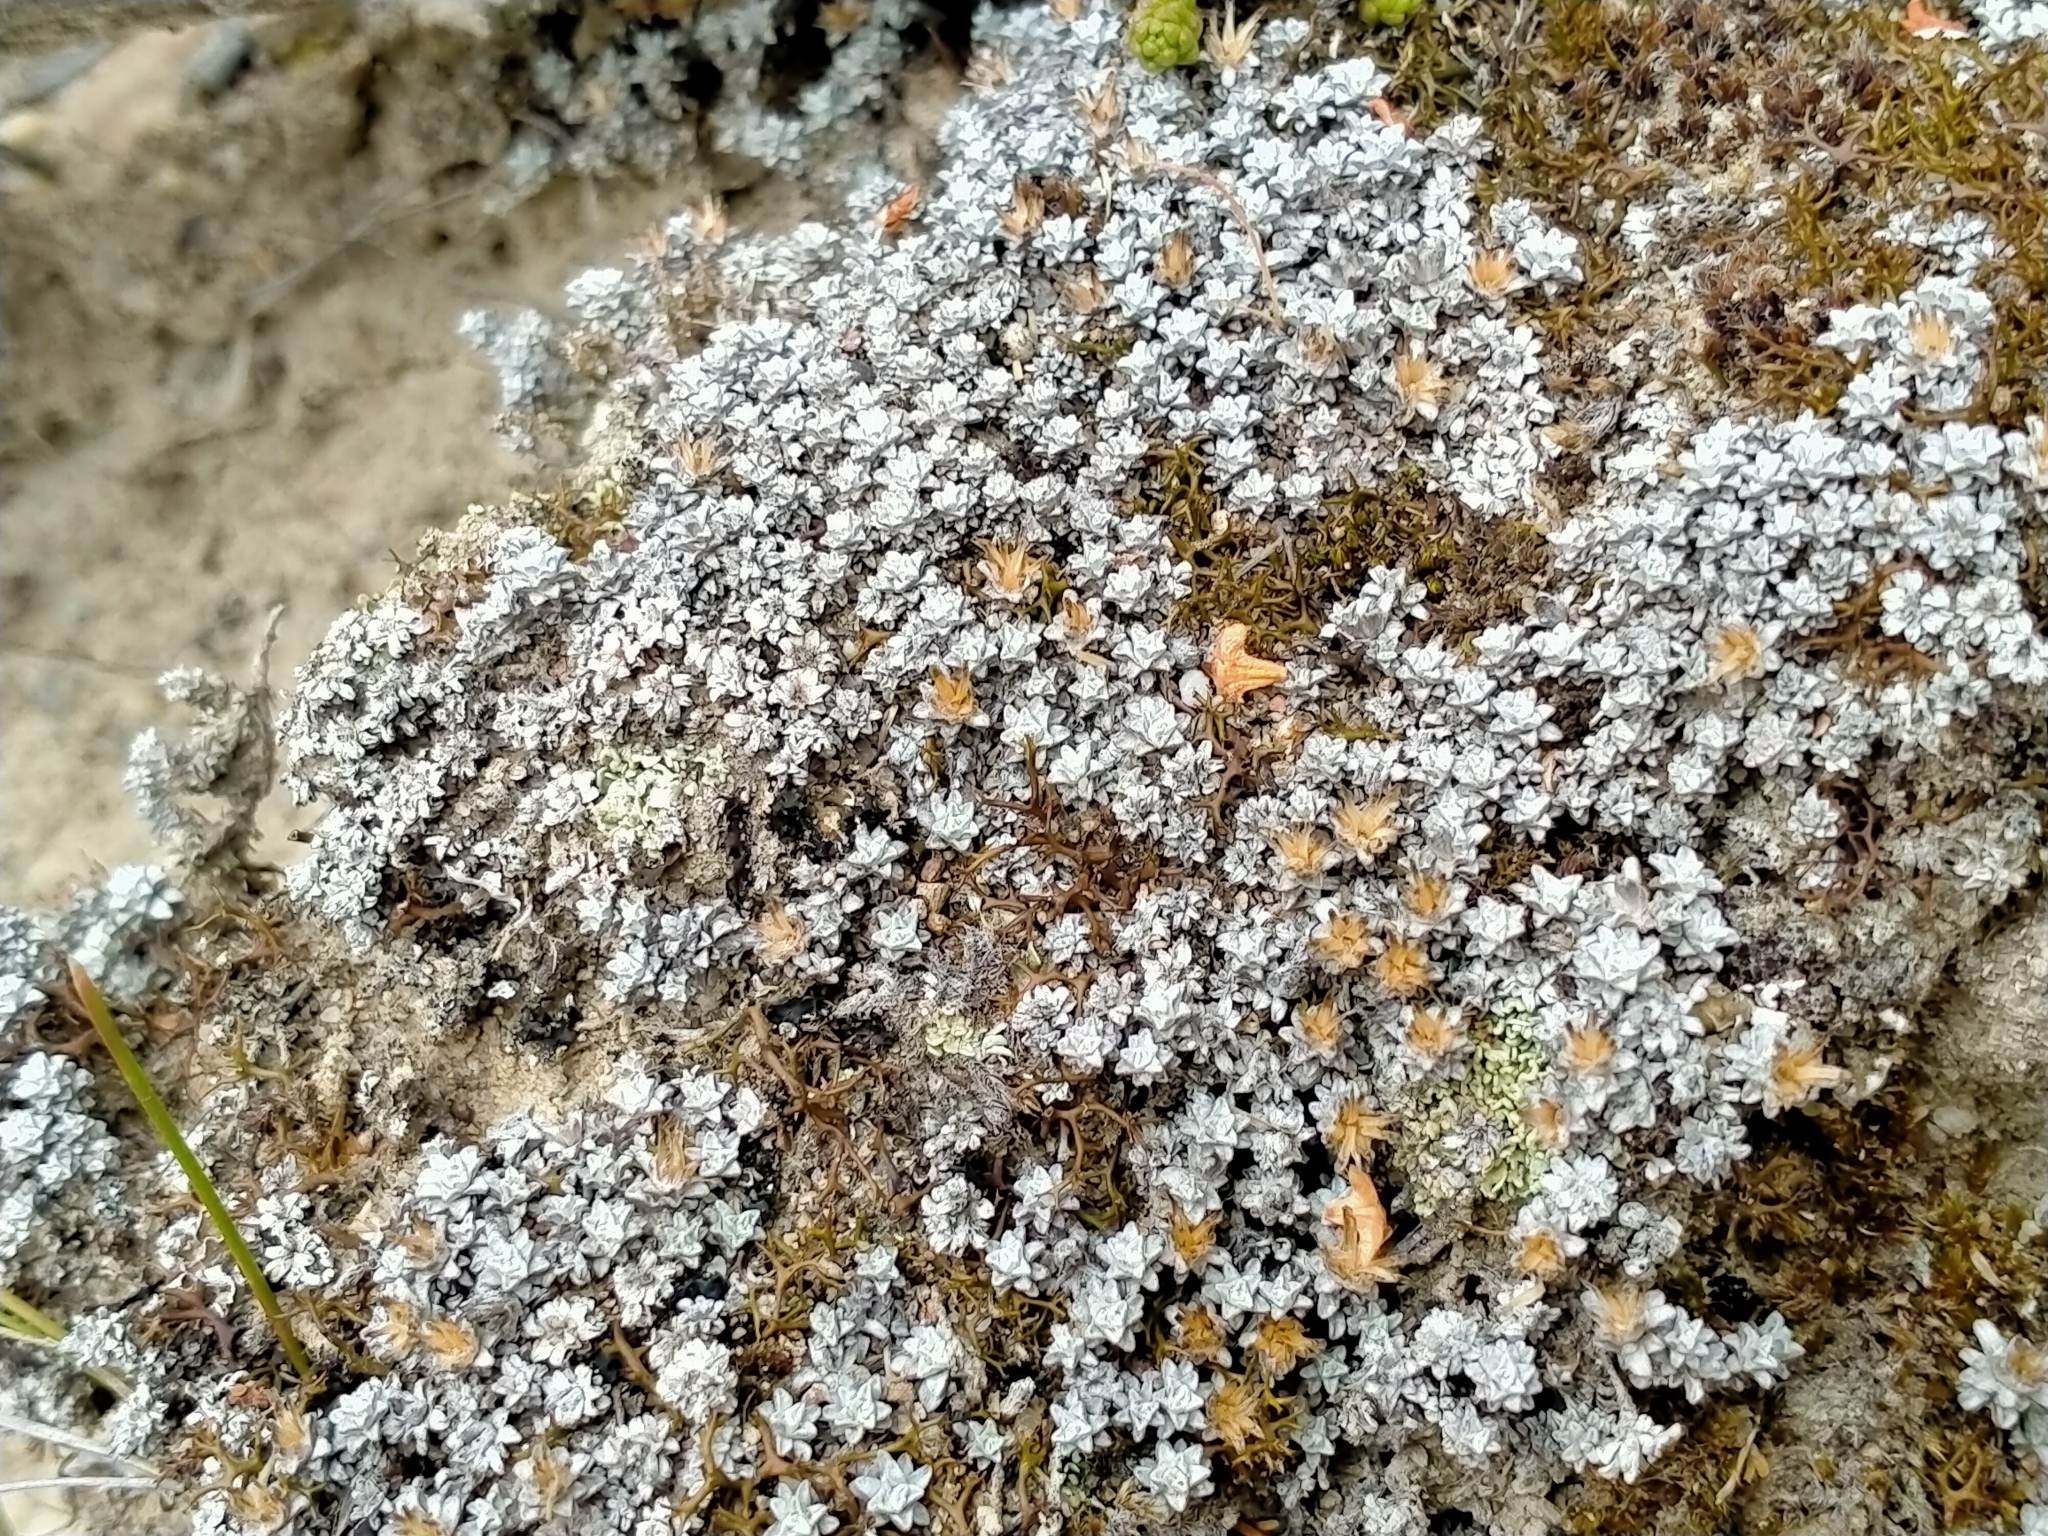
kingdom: Plantae
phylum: Tracheophyta
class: Magnoliopsida
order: Asterales
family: Asteraceae
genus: Raoulia
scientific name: Raoulia beauverdii
